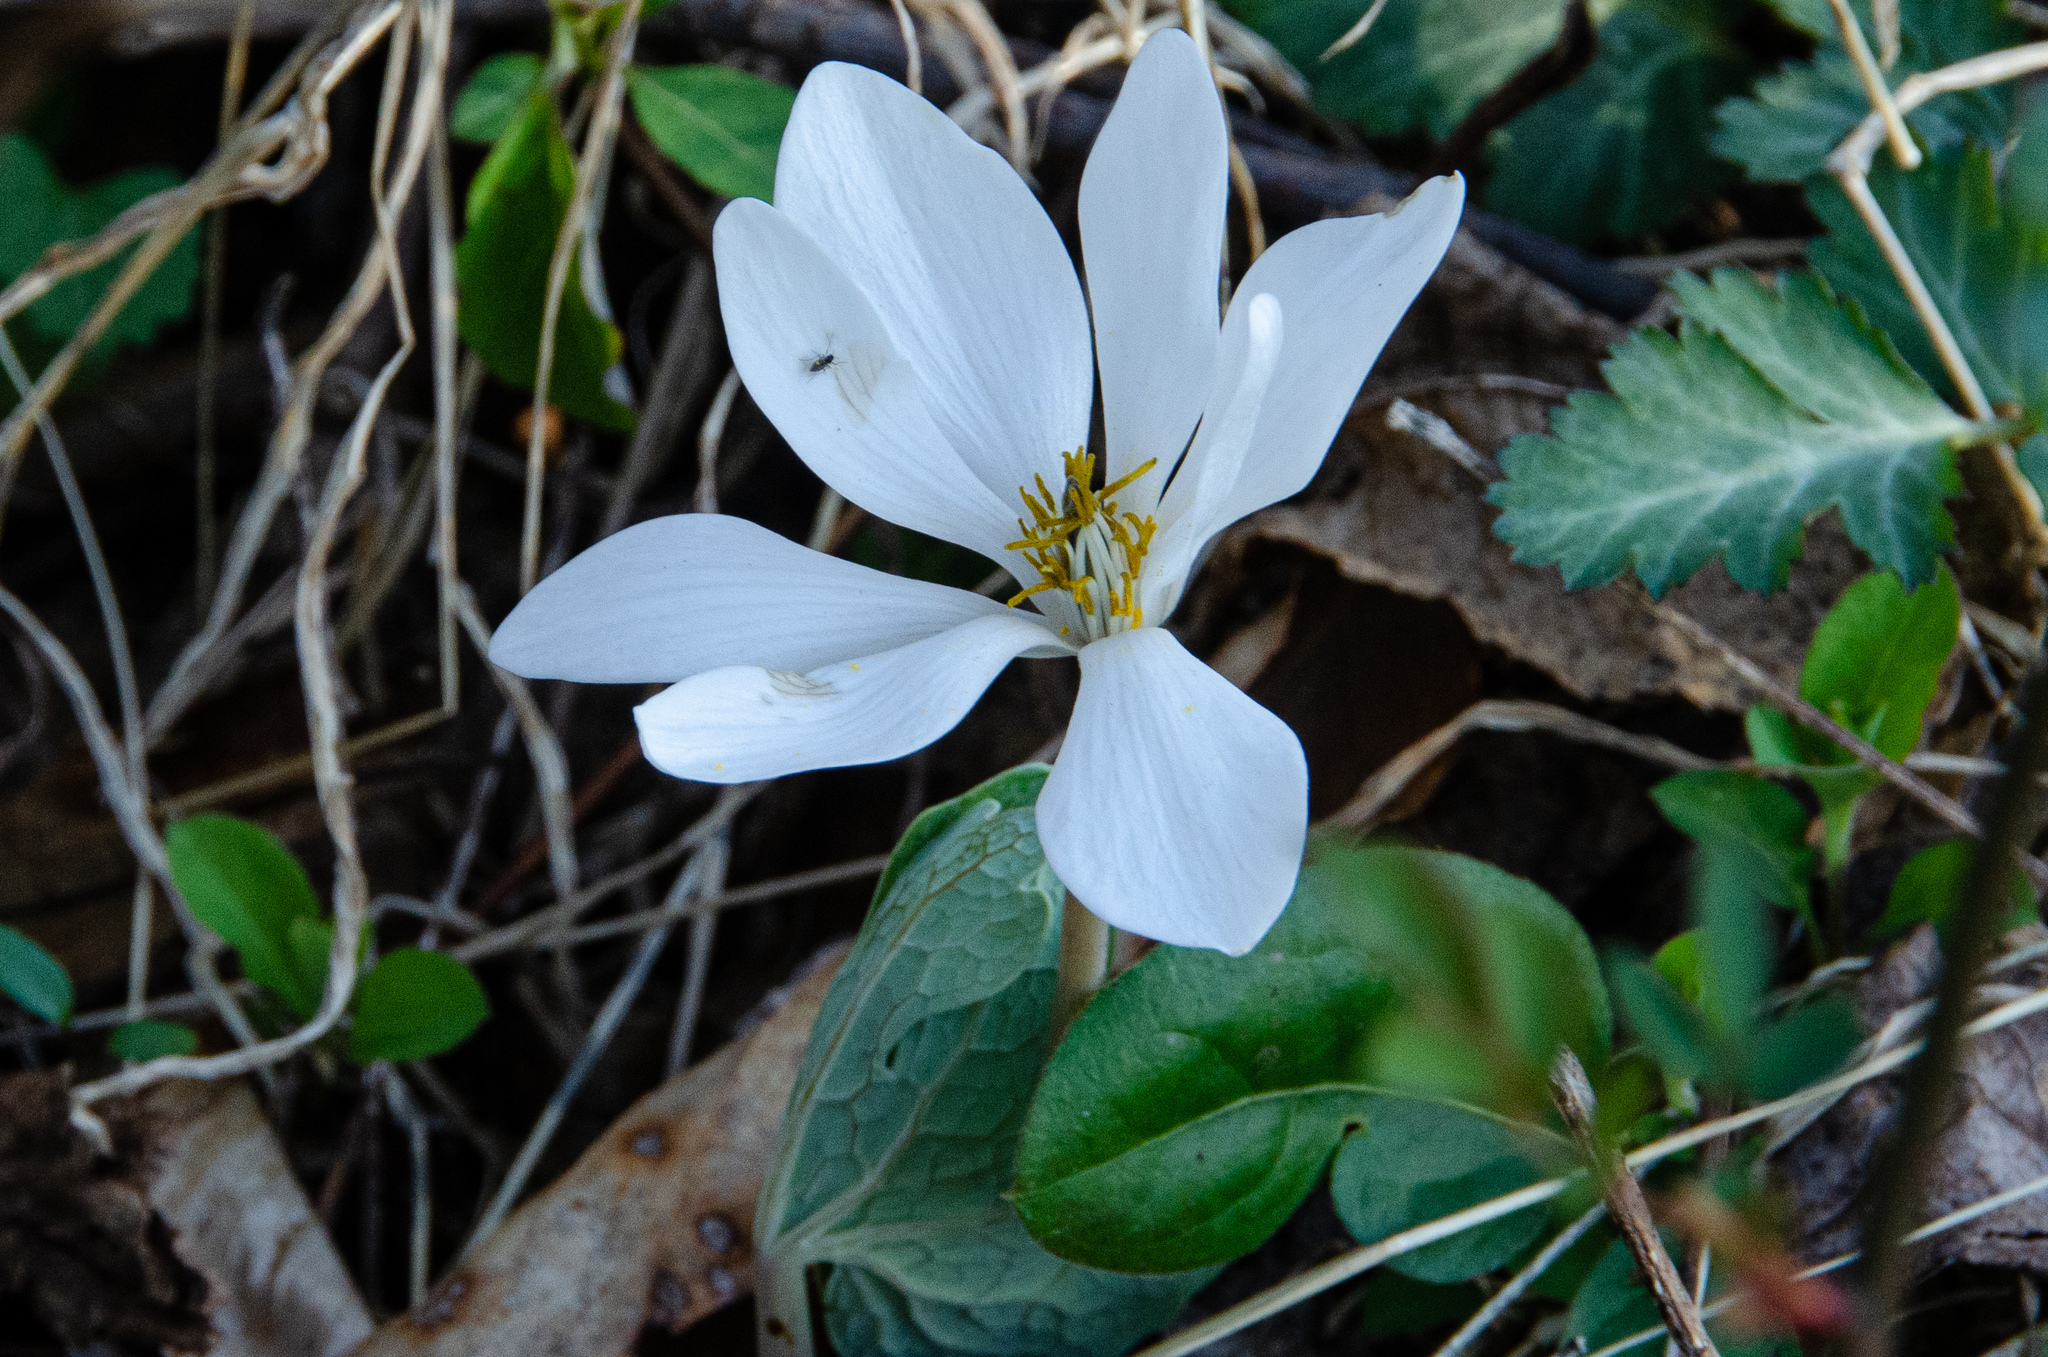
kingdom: Plantae
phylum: Tracheophyta
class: Magnoliopsida
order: Ranunculales
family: Papaveraceae
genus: Sanguinaria
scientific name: Sanguinaria canadensis
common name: Bloodroot
